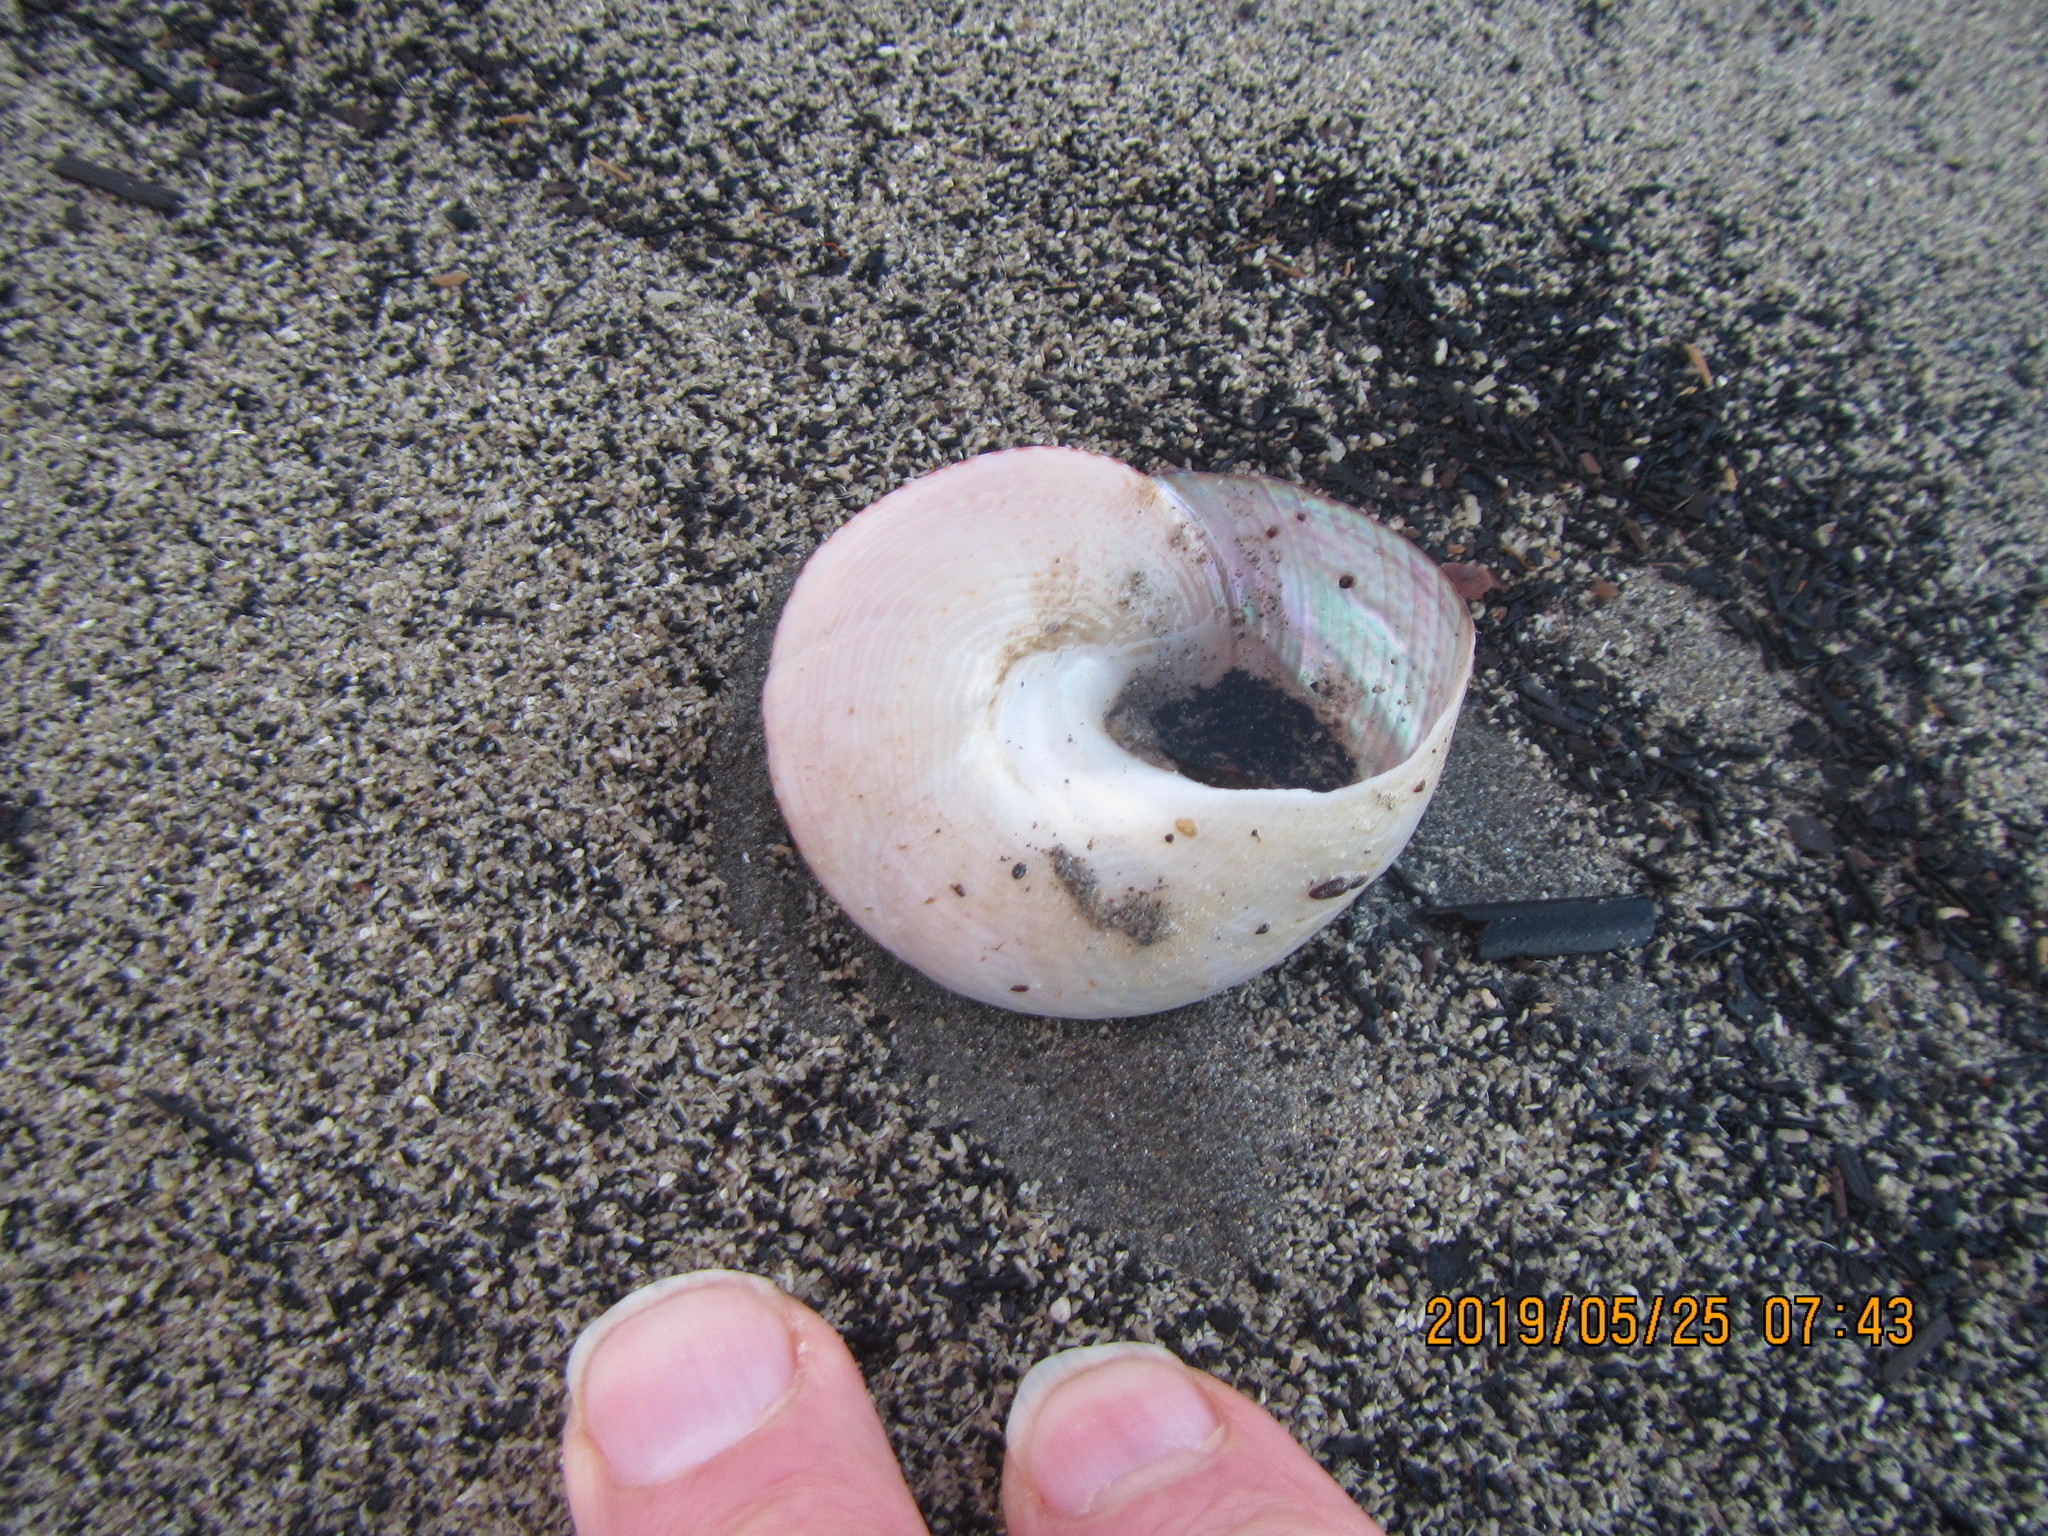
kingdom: Animalia
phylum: Mollusca
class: Gastropoda
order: Trochida
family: Calliostomatidae
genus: Maurea
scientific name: Maurea selecta
